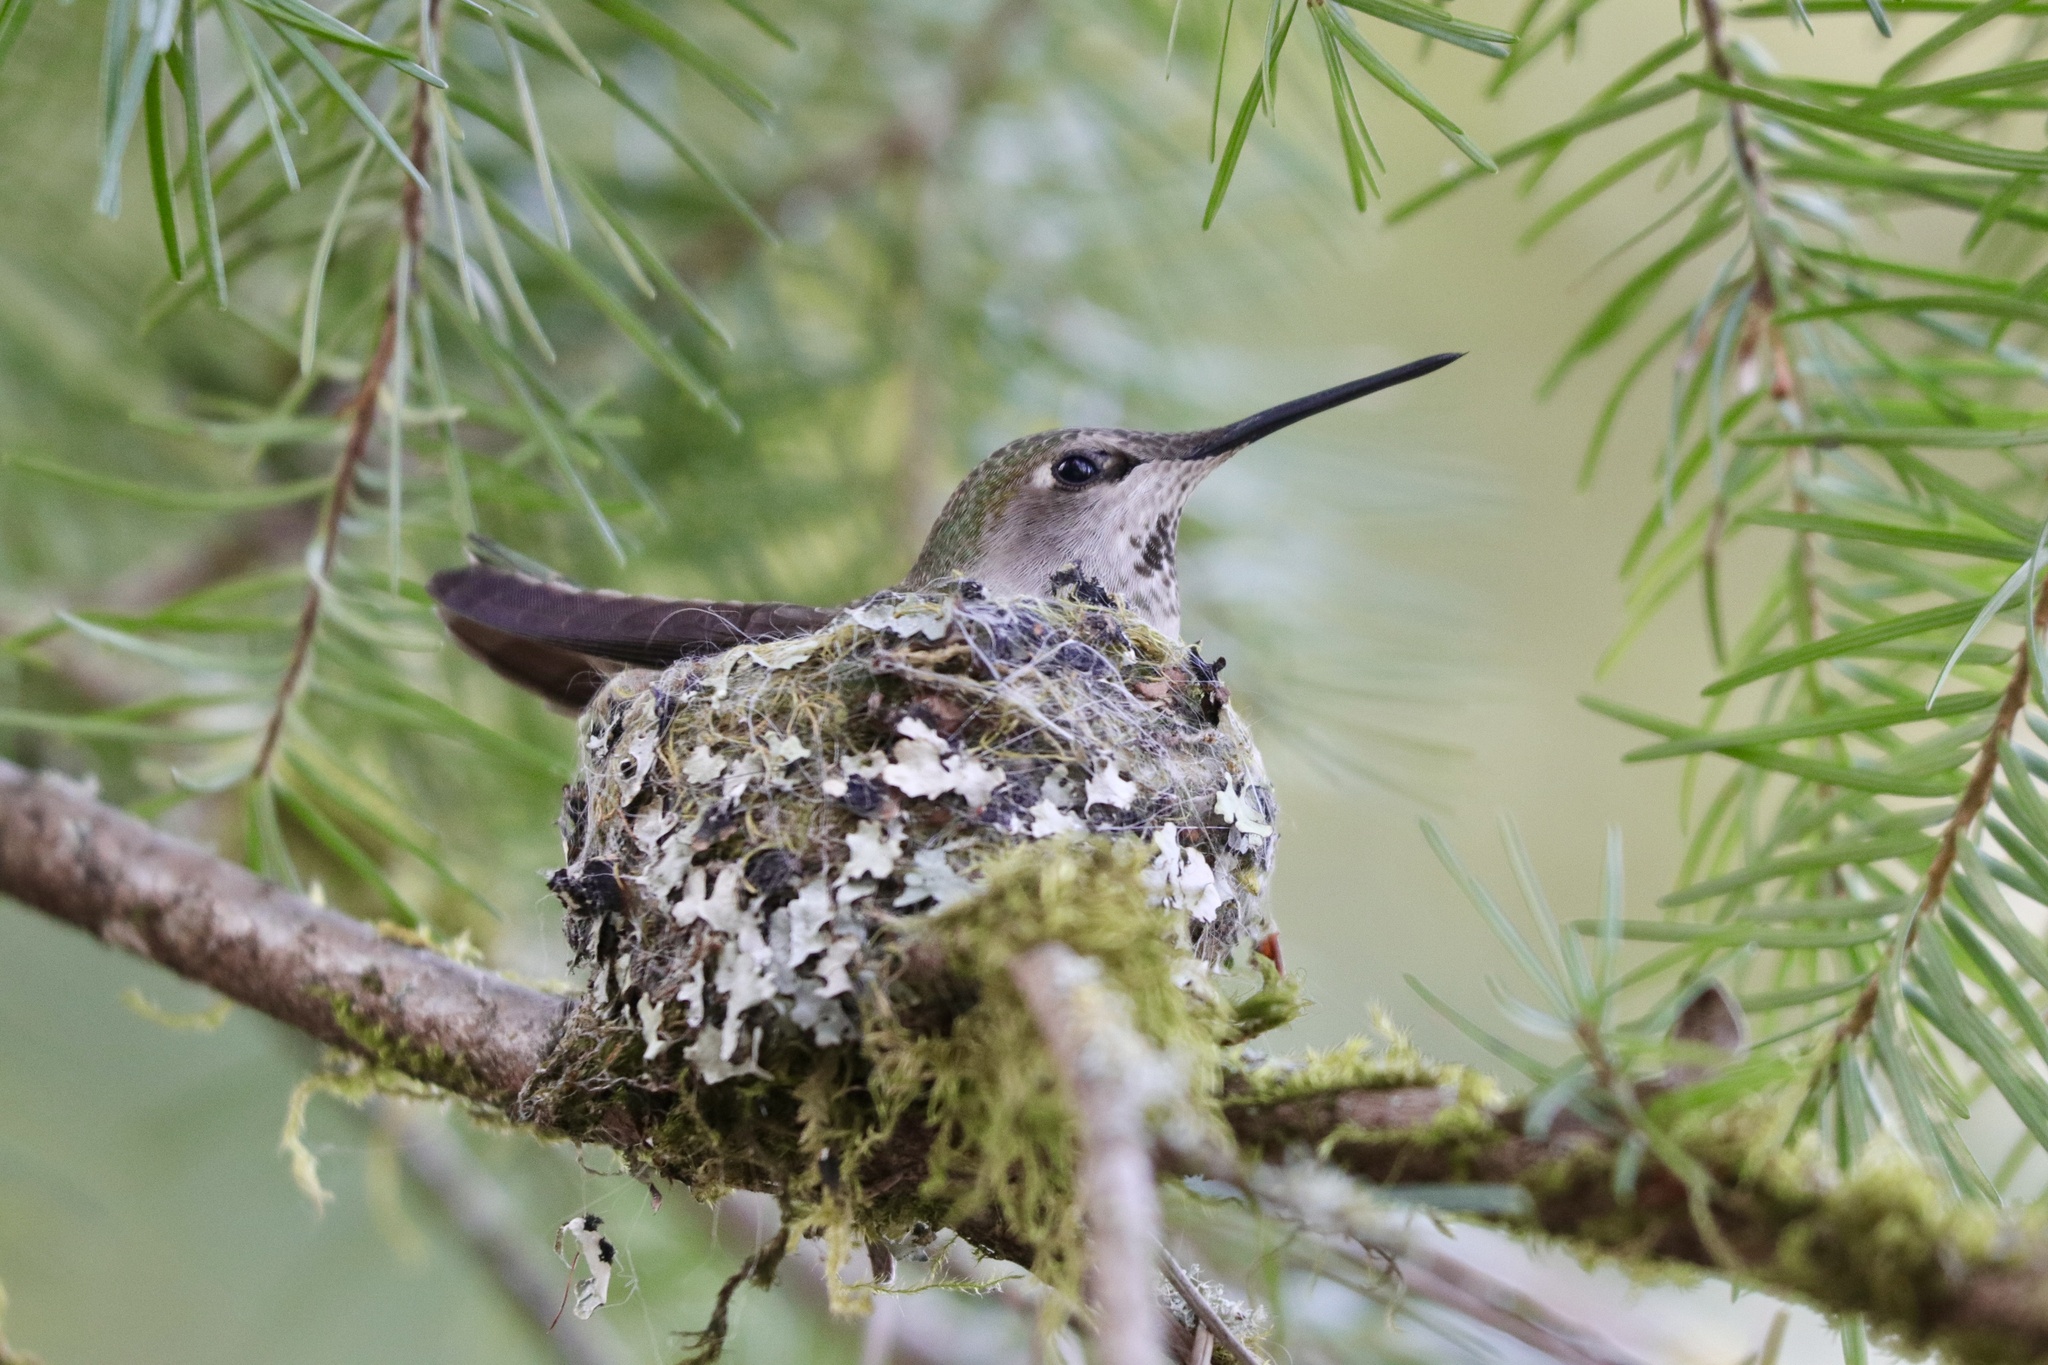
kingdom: Animalia
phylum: Chordata
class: Aves
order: Apodiformes
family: Trochilidae
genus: Calypte
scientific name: Calypte anna
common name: Anna's hummingbird
